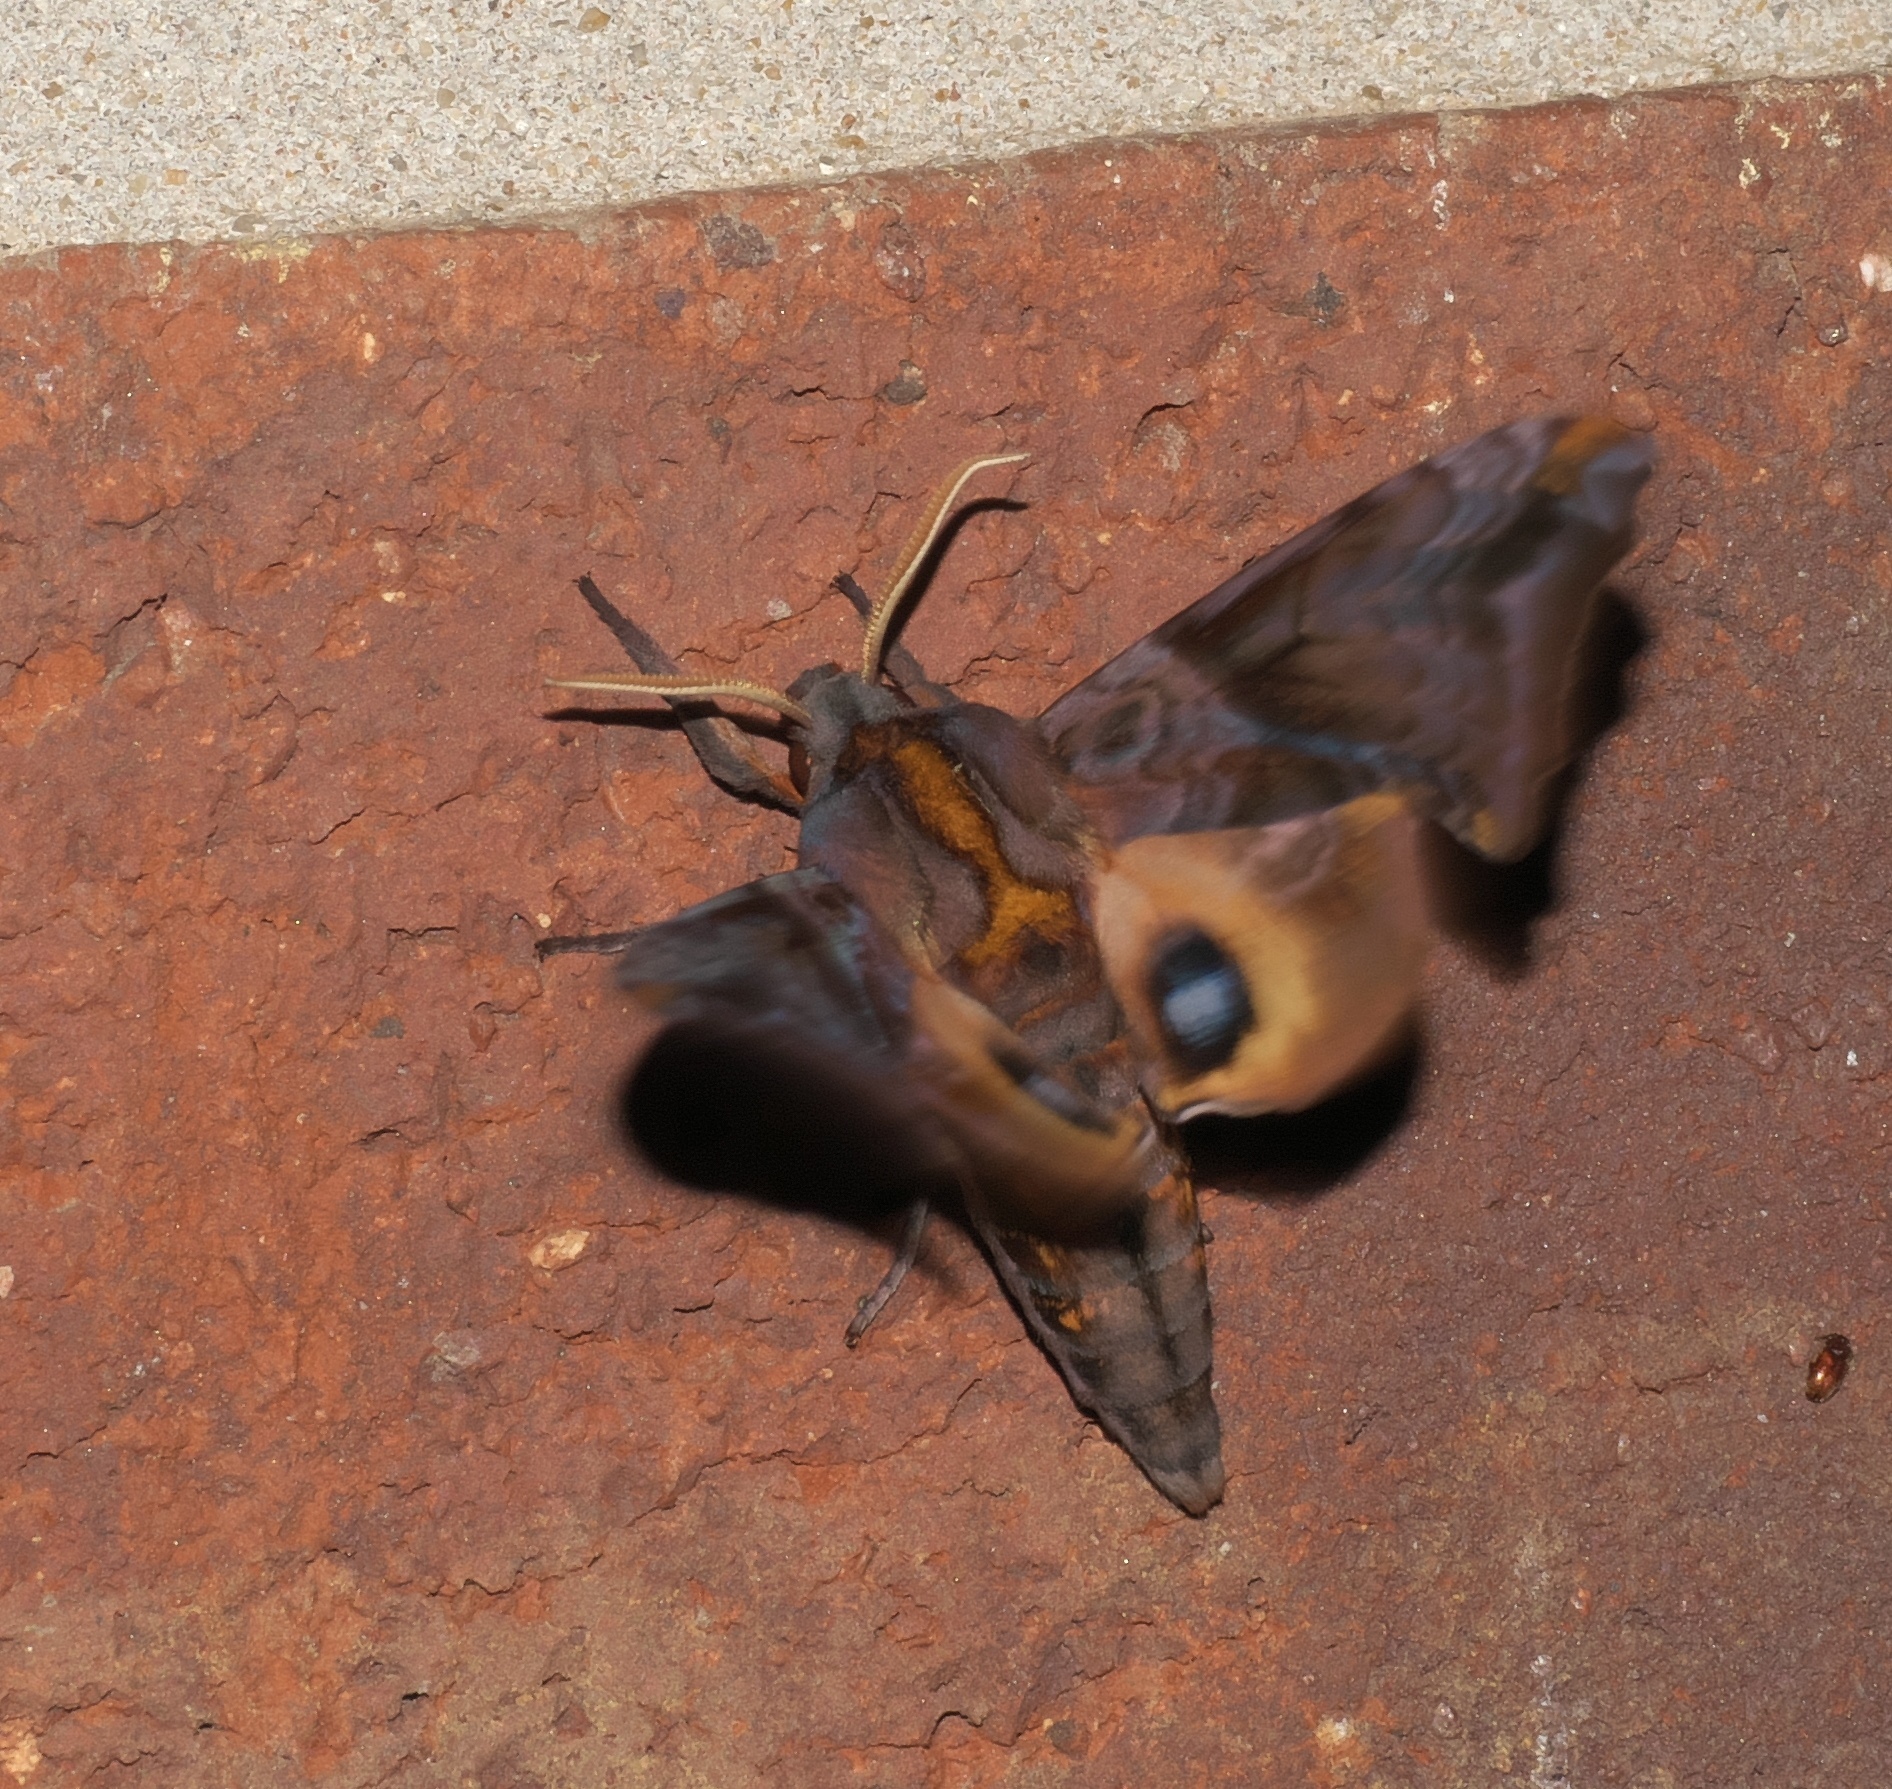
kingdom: Animalia
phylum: Arthropoda
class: Insecta
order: Lepidoptera
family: Sphingidae
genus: Paonias
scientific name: Paonias myops
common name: Small-eyed sphinx
